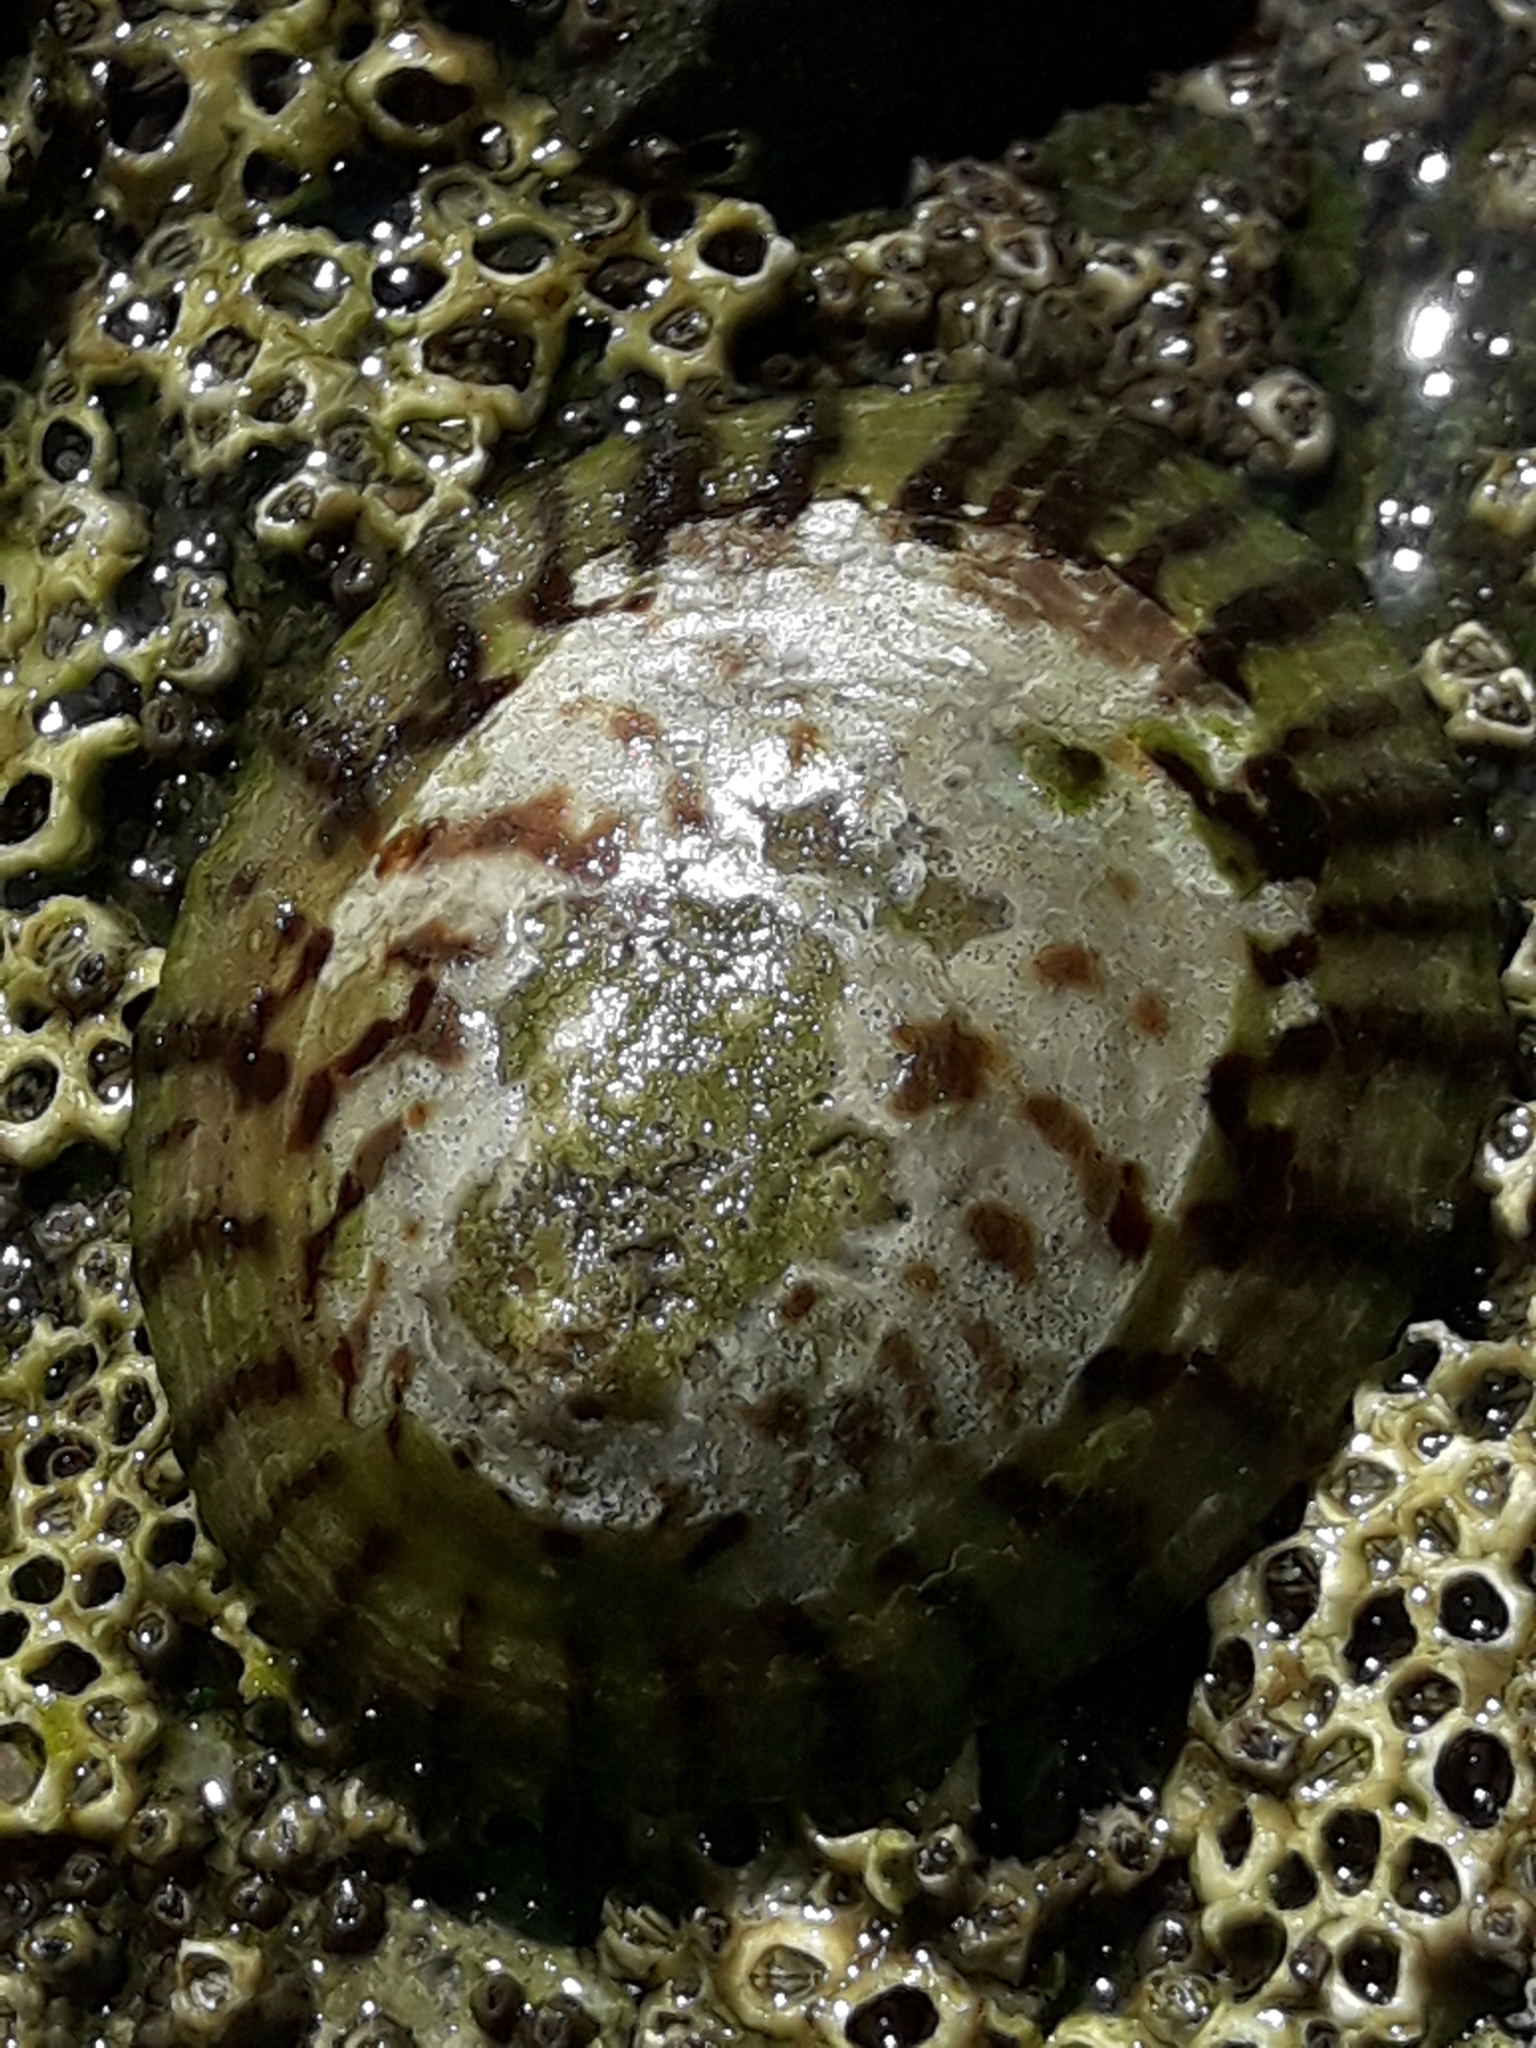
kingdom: Animalia
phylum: Mollusca
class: Gastropoda
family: Nacellidae
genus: Cellana
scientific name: Cellana radians
